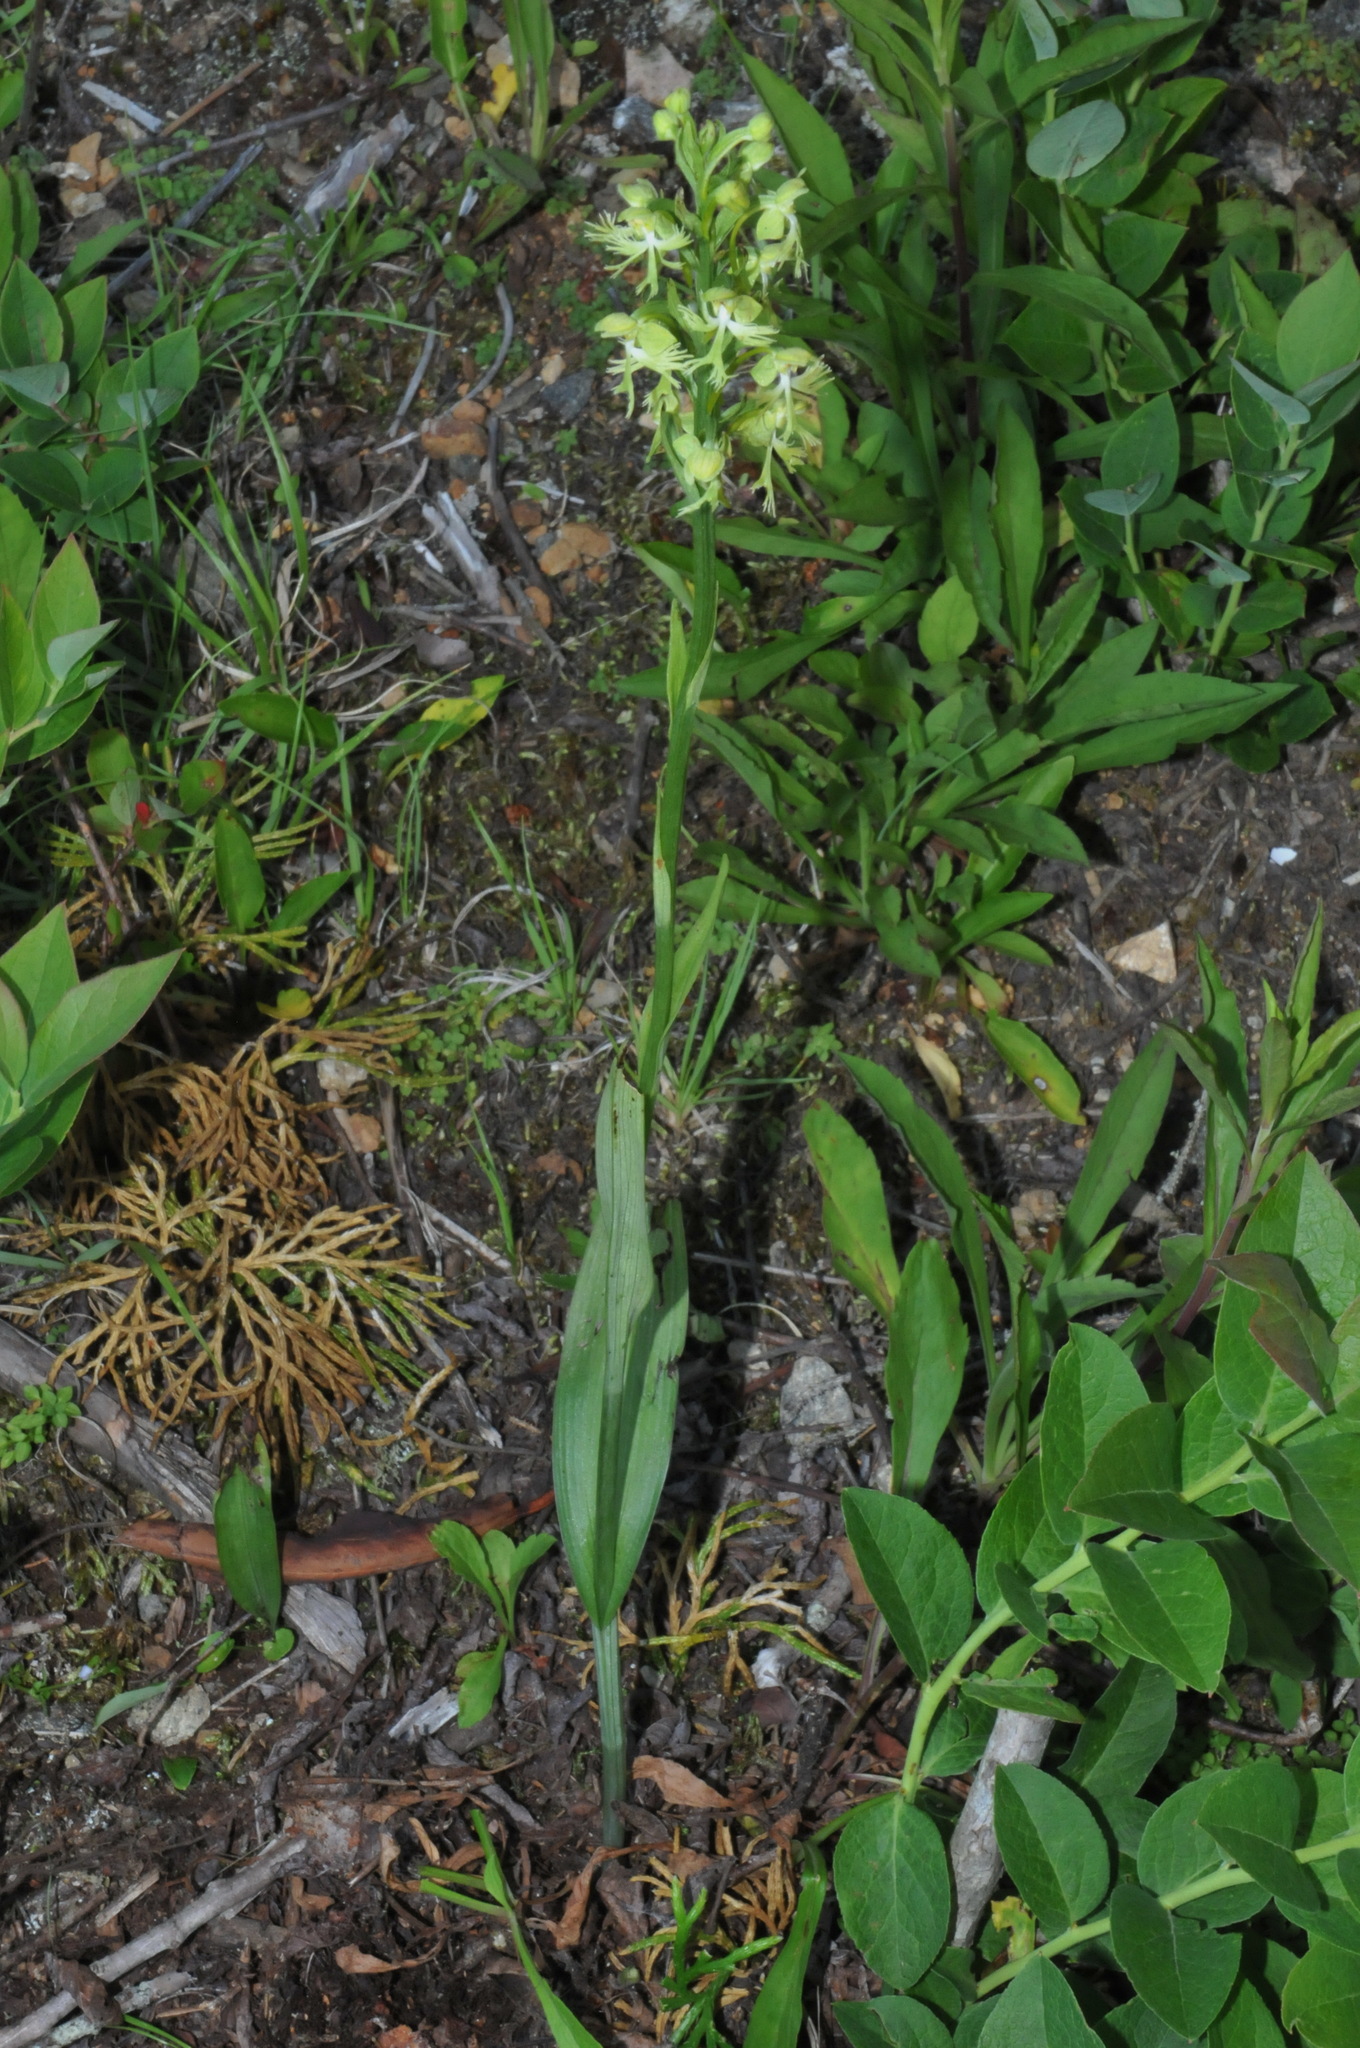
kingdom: Plantae
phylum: Tracheophyta
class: Liliopsida
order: Asparagales
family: Orchidaceae
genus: Platanthera
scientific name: Platanthera lacera
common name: Green fringed orchid
